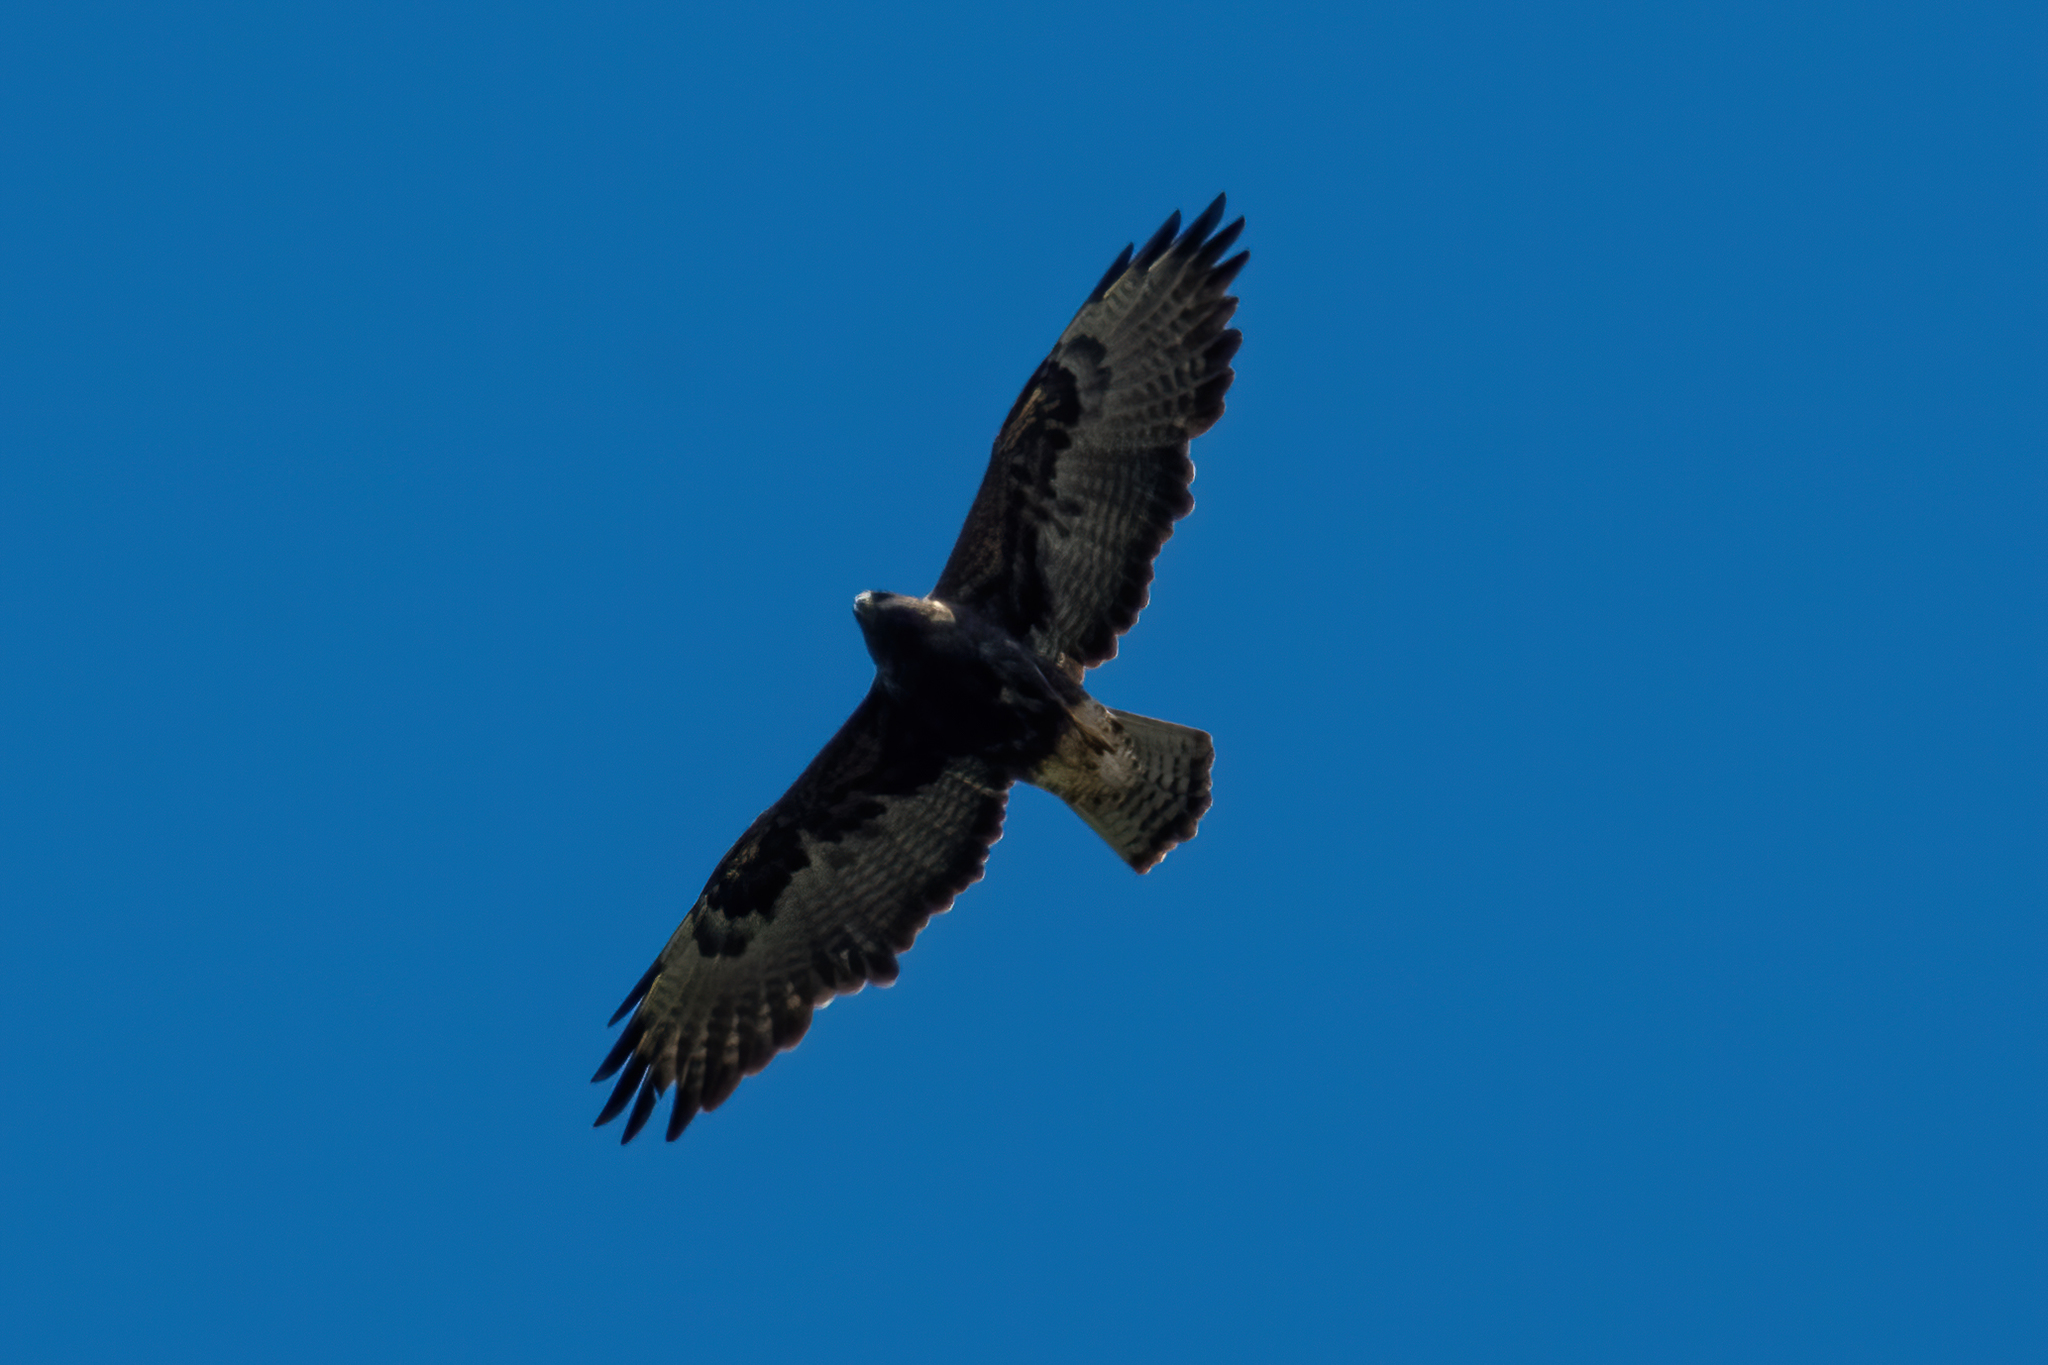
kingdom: Animalia
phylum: Chordata
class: Aves
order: Accipitriformes
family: Accipitridae
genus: Buteo
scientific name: Buteo swainsoni
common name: Swainson's hawk
